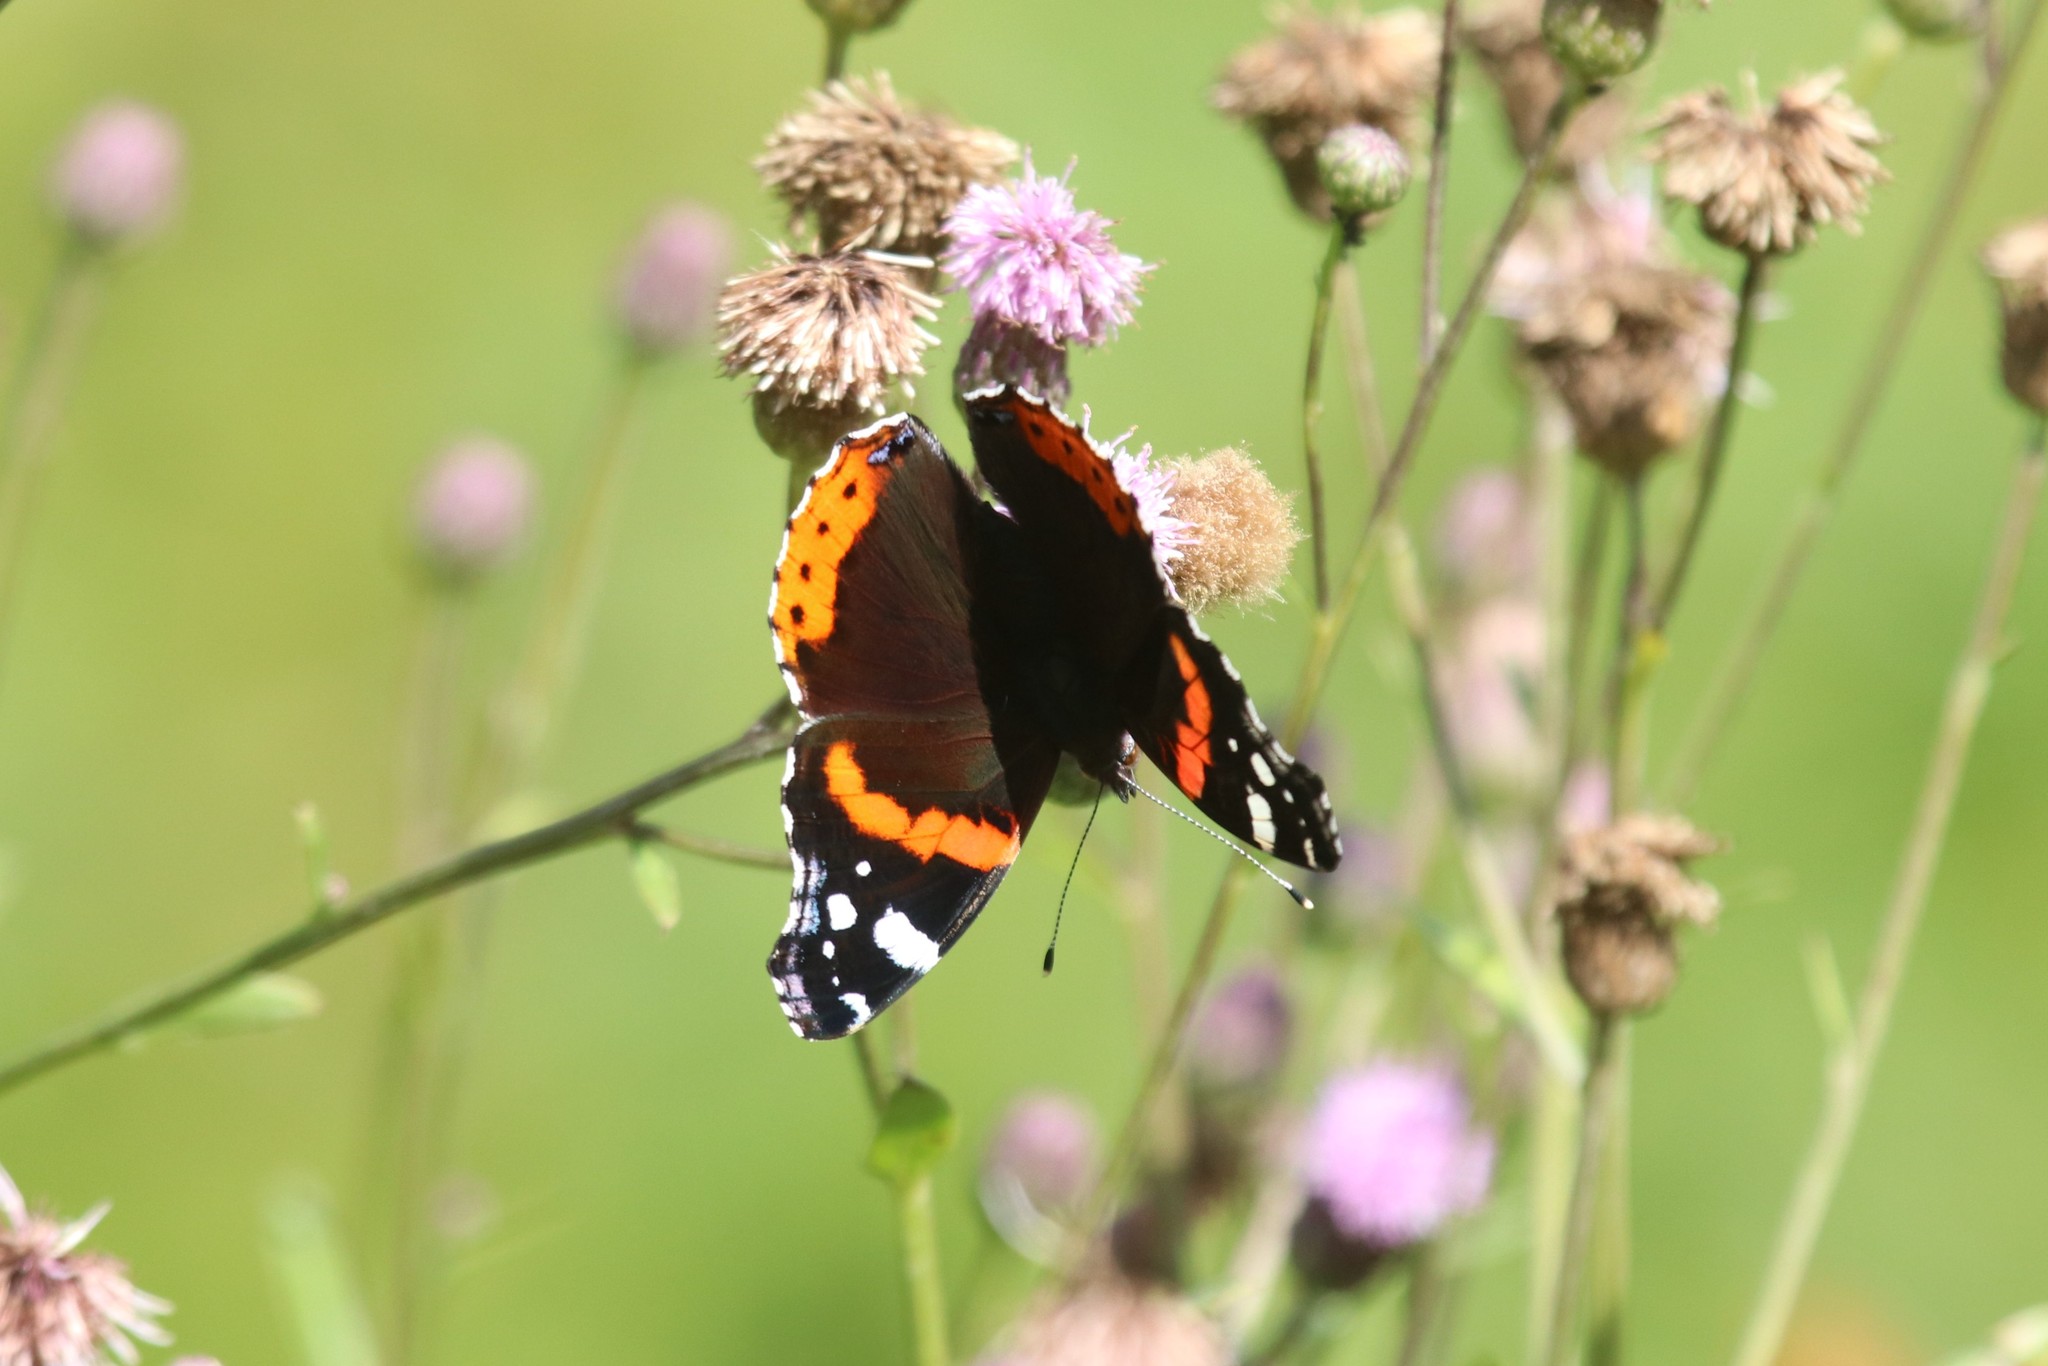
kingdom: Animalia
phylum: Arthropoda
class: Insecta
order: Lepidoptera
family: Nymphalidae
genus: Vanessa
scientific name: Vanessa atalanta
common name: Red admiral
